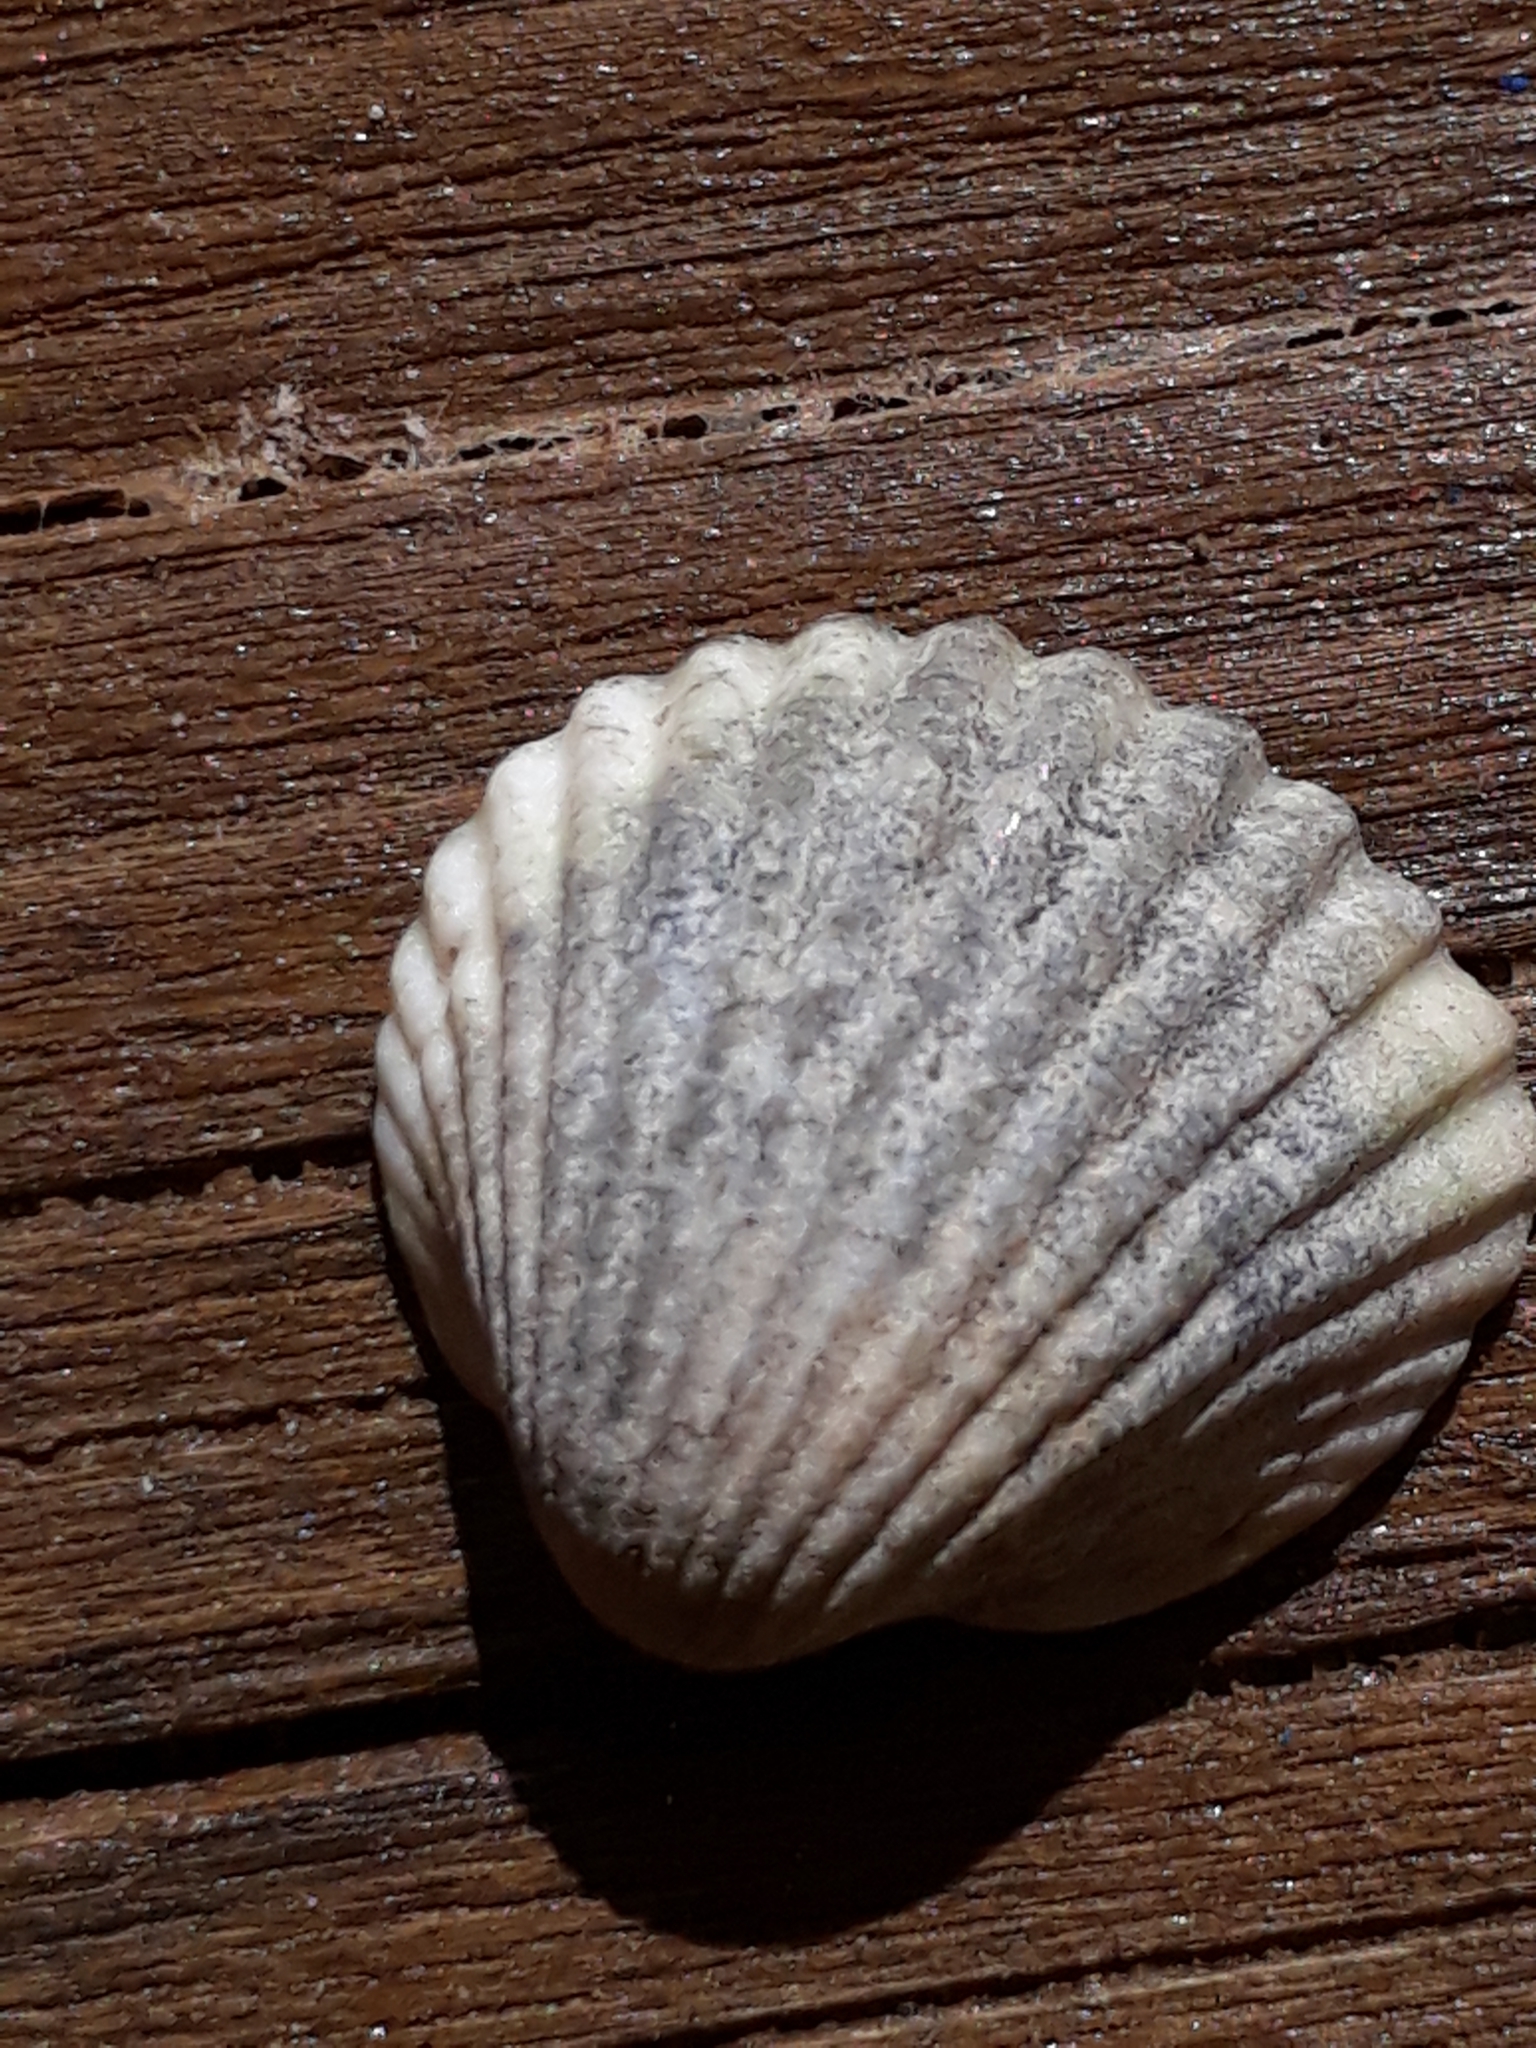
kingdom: Animalia
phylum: Mollusca
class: Bivalvia
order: Cardiida
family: Cardiidae
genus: Cerastoderma
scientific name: Cerastoderma edule
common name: Common cockle
